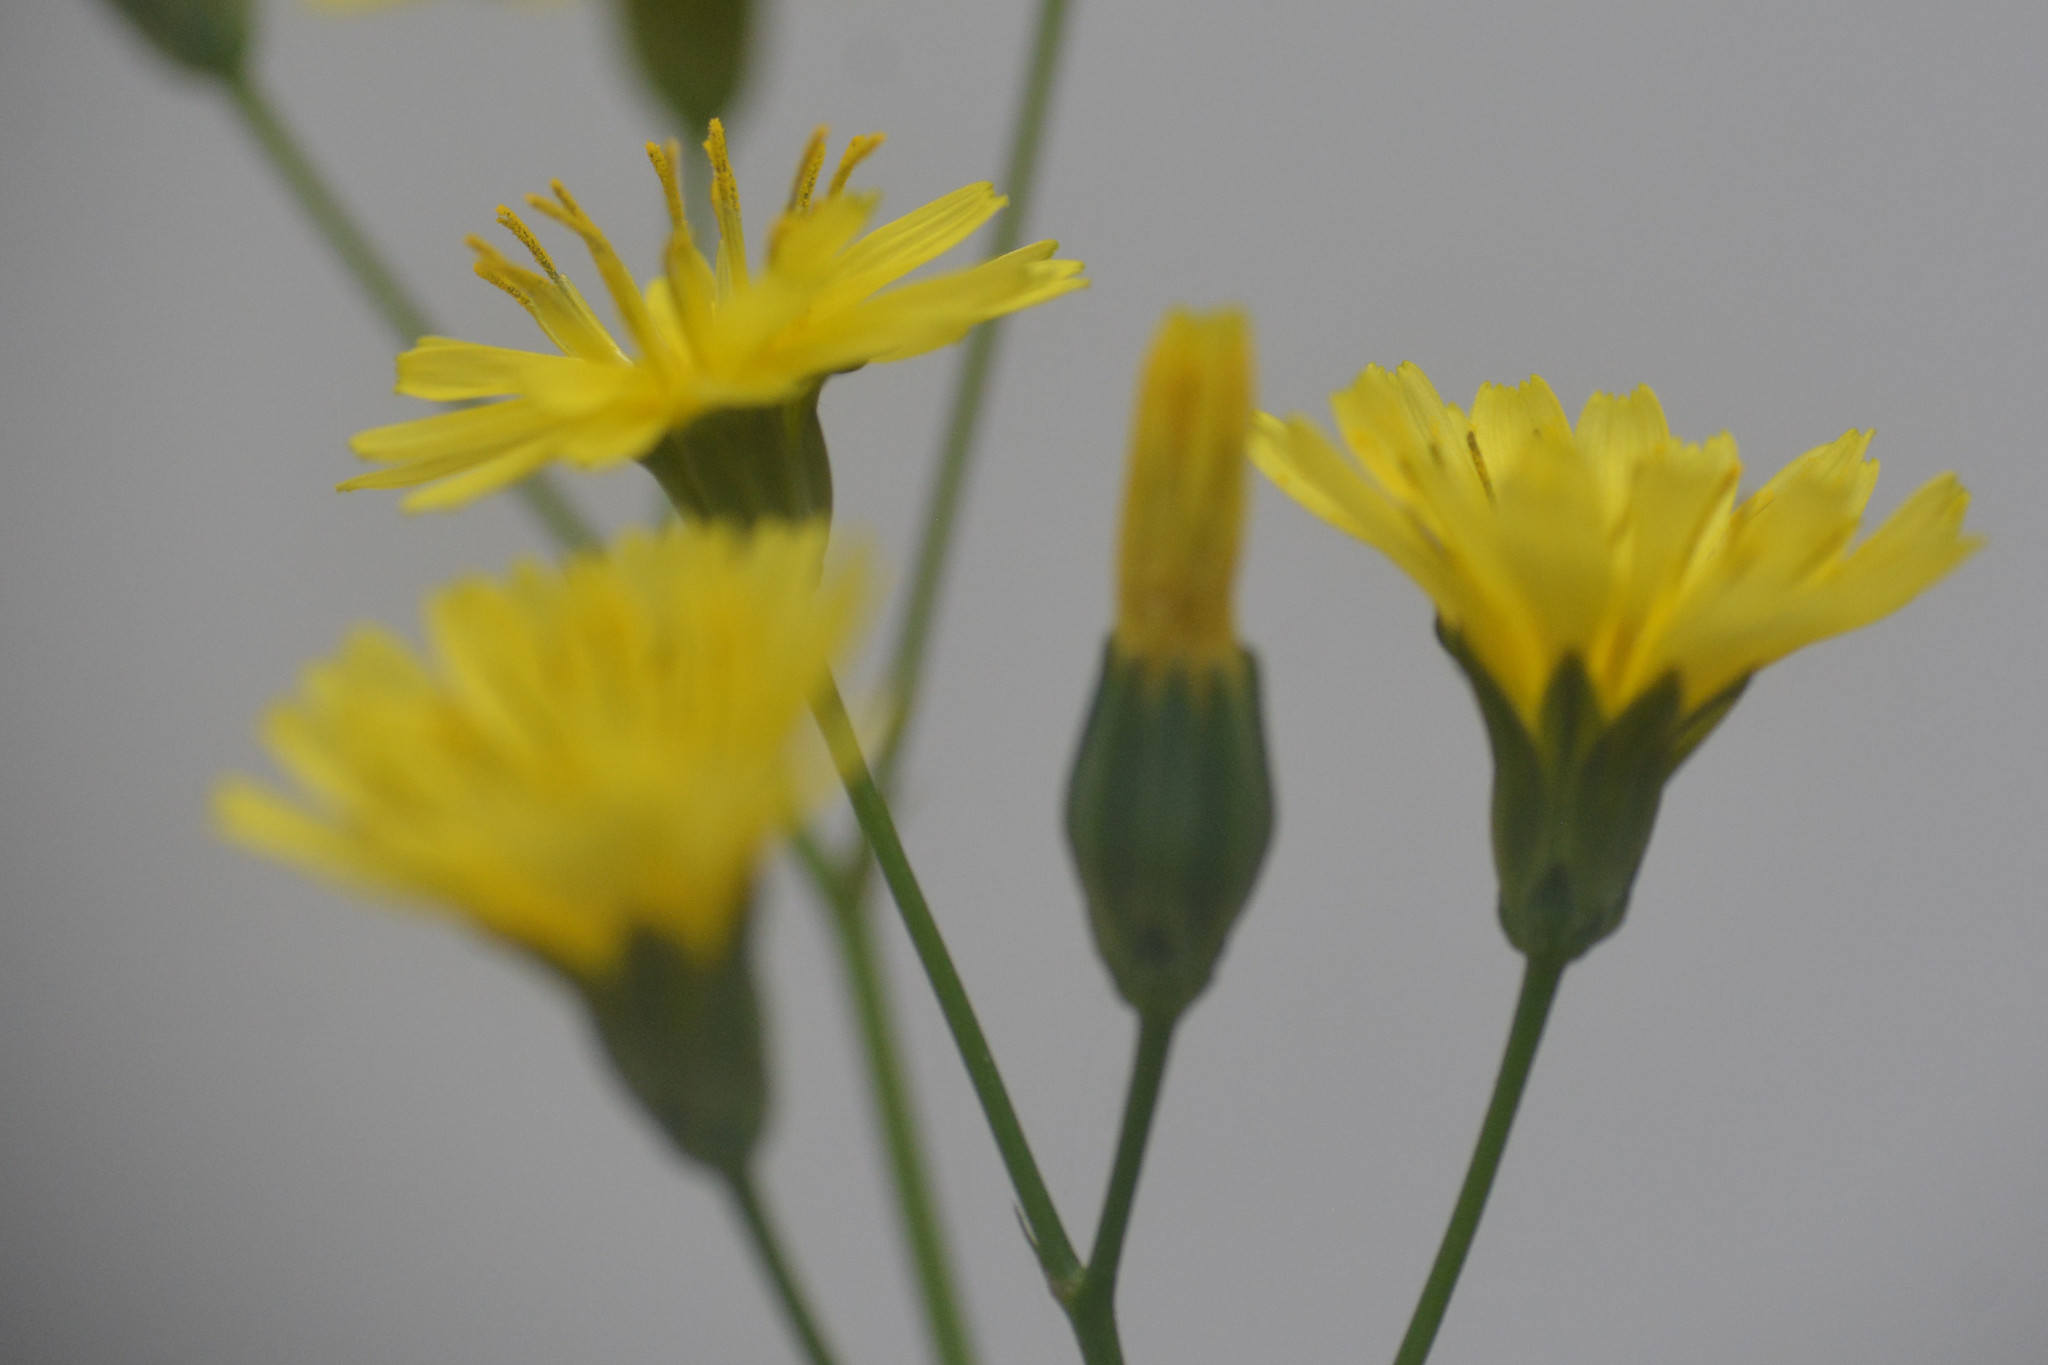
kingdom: Plantae
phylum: Tracheophyta
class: Magnoliopsida
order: Asterales
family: Asteraceae
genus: Lapsana
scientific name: Lapsana communis
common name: Nipplewort
